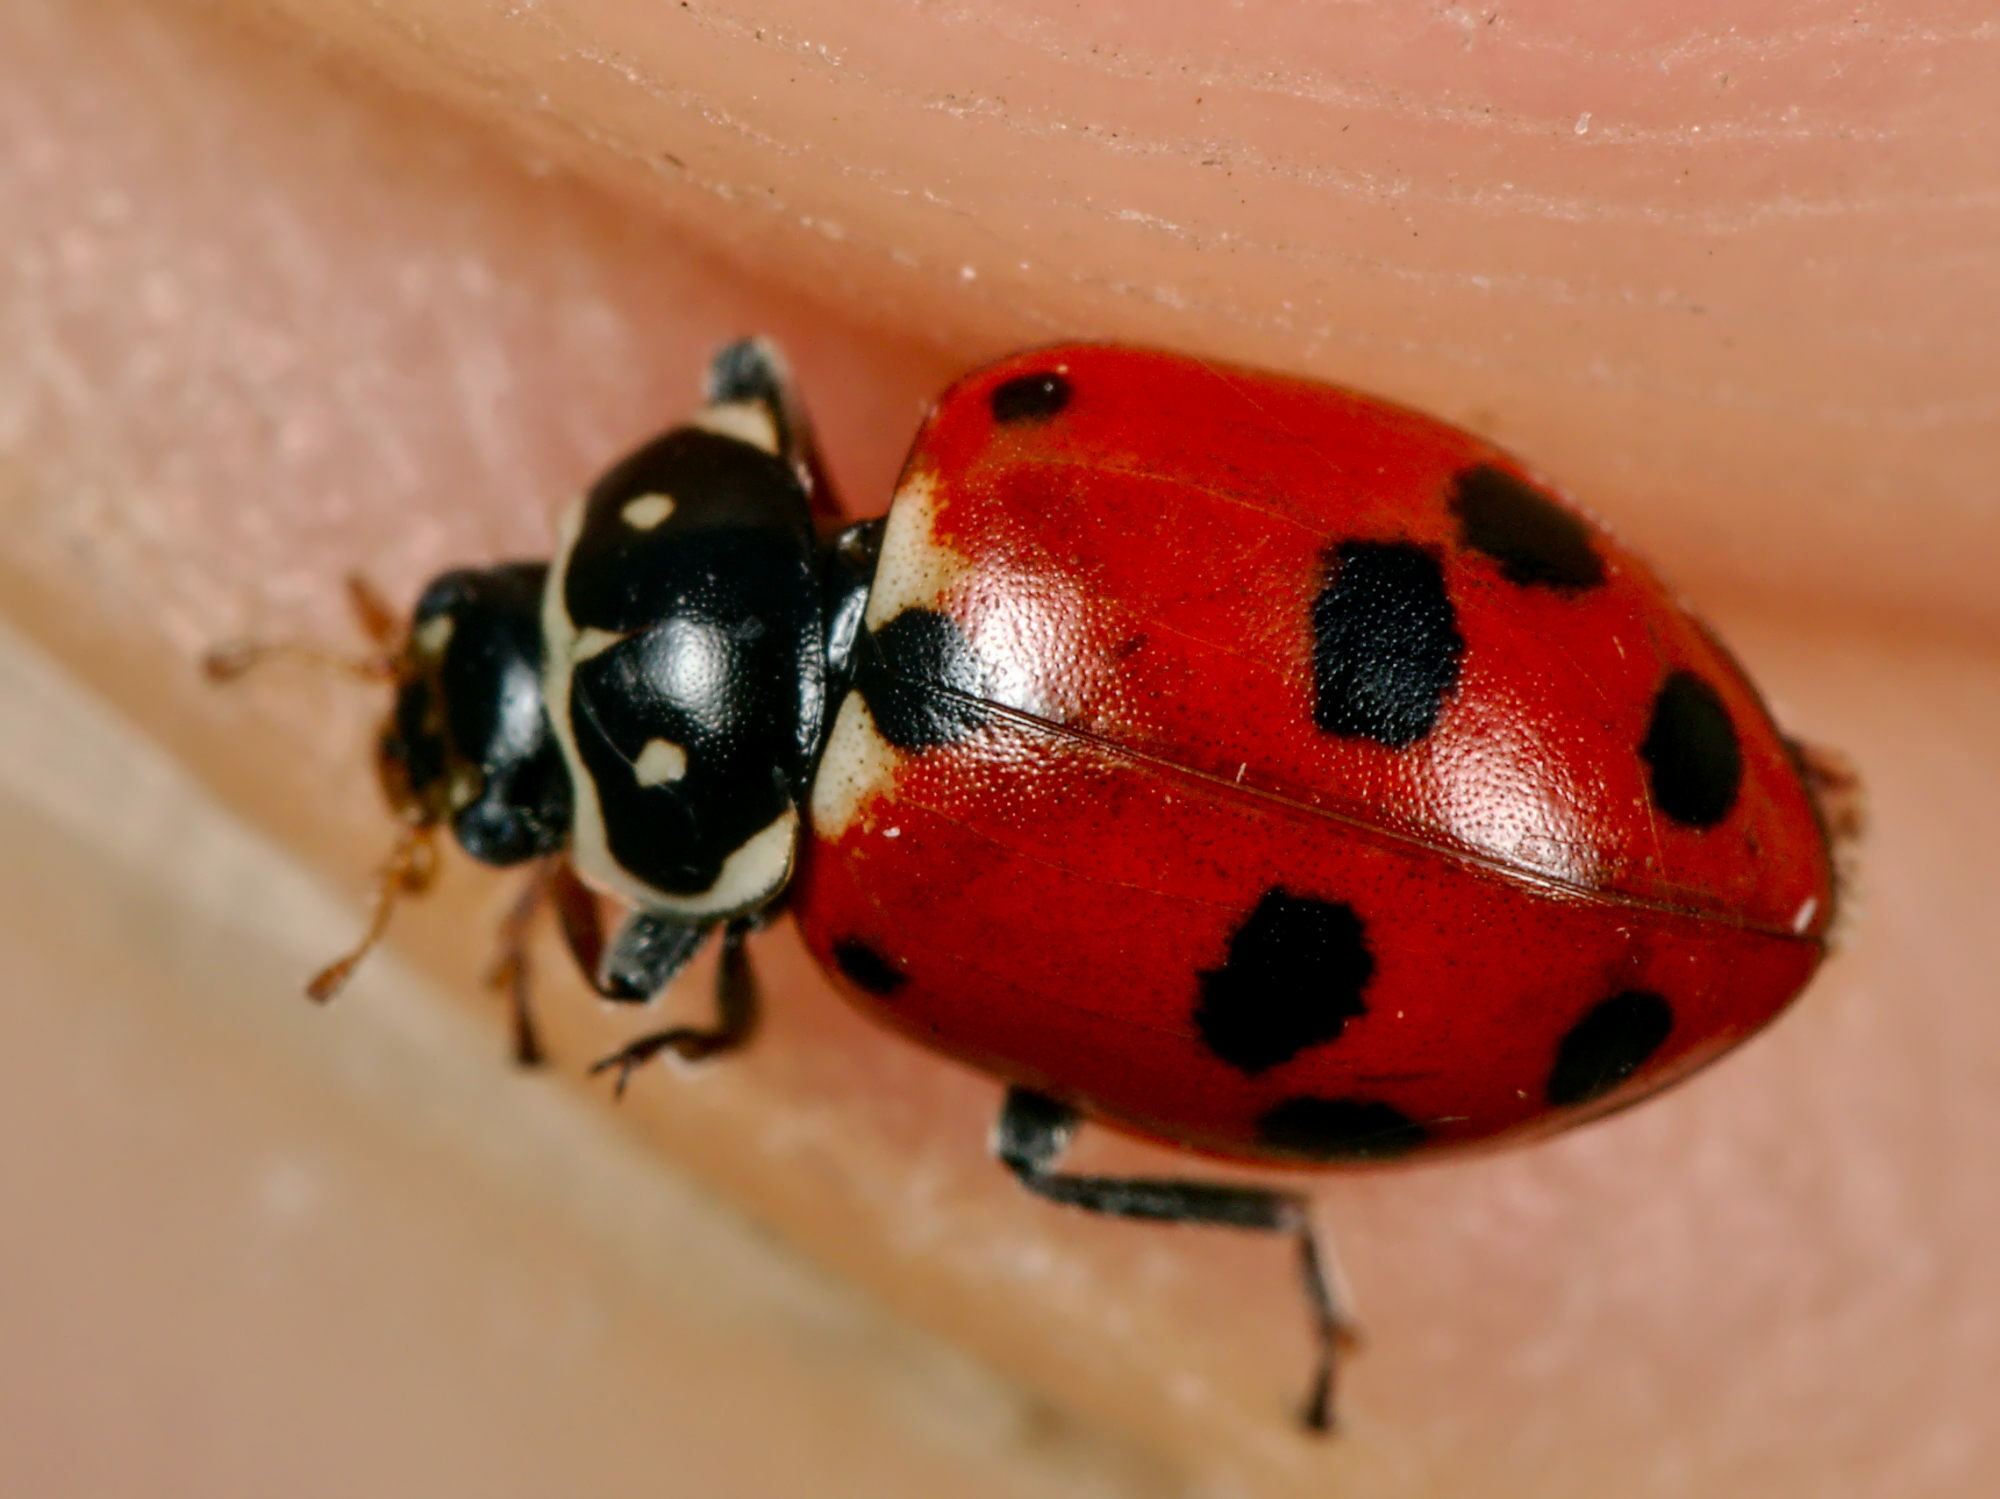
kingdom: Animalia
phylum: Arthropoda
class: Insecta
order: Coleoptera
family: Coccinellidae
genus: Hippodamia
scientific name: Hippodamia variegata
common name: Ladybird beetle
